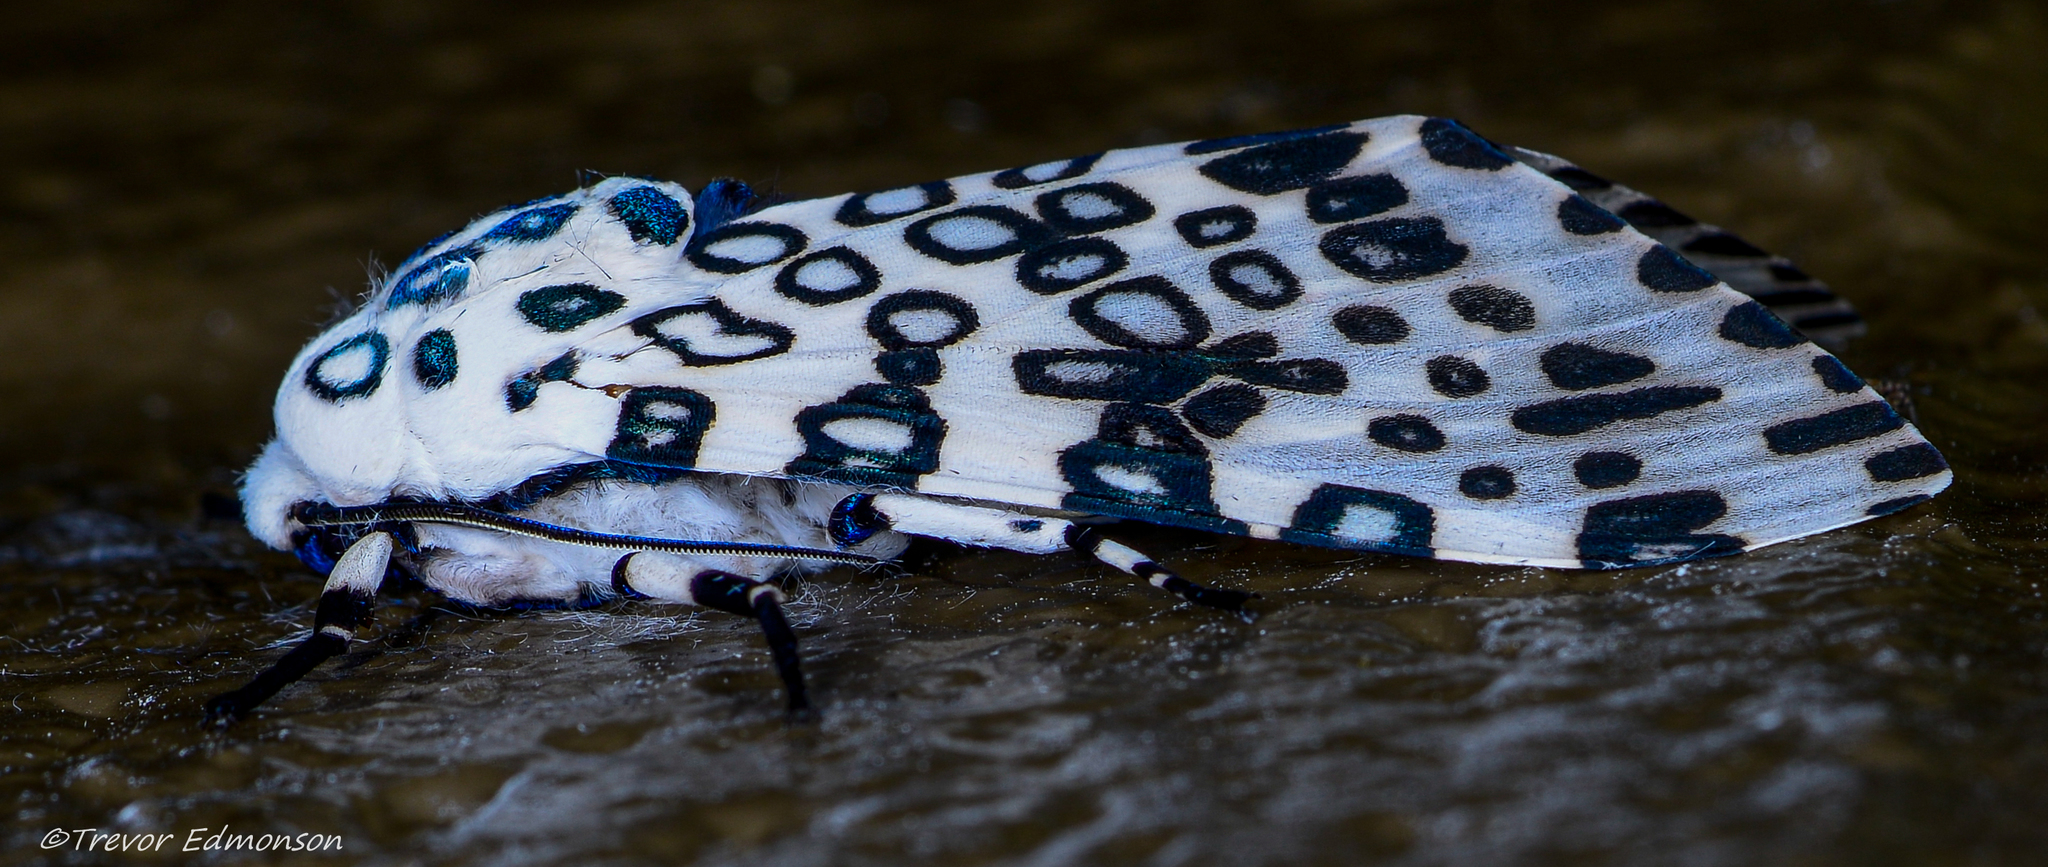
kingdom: Animalia
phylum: Arthropoda
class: Insecta
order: Lepidoptera
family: Erebidae
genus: Hypercompe
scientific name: Hypercompe scribonia
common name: Giant leopard moth
